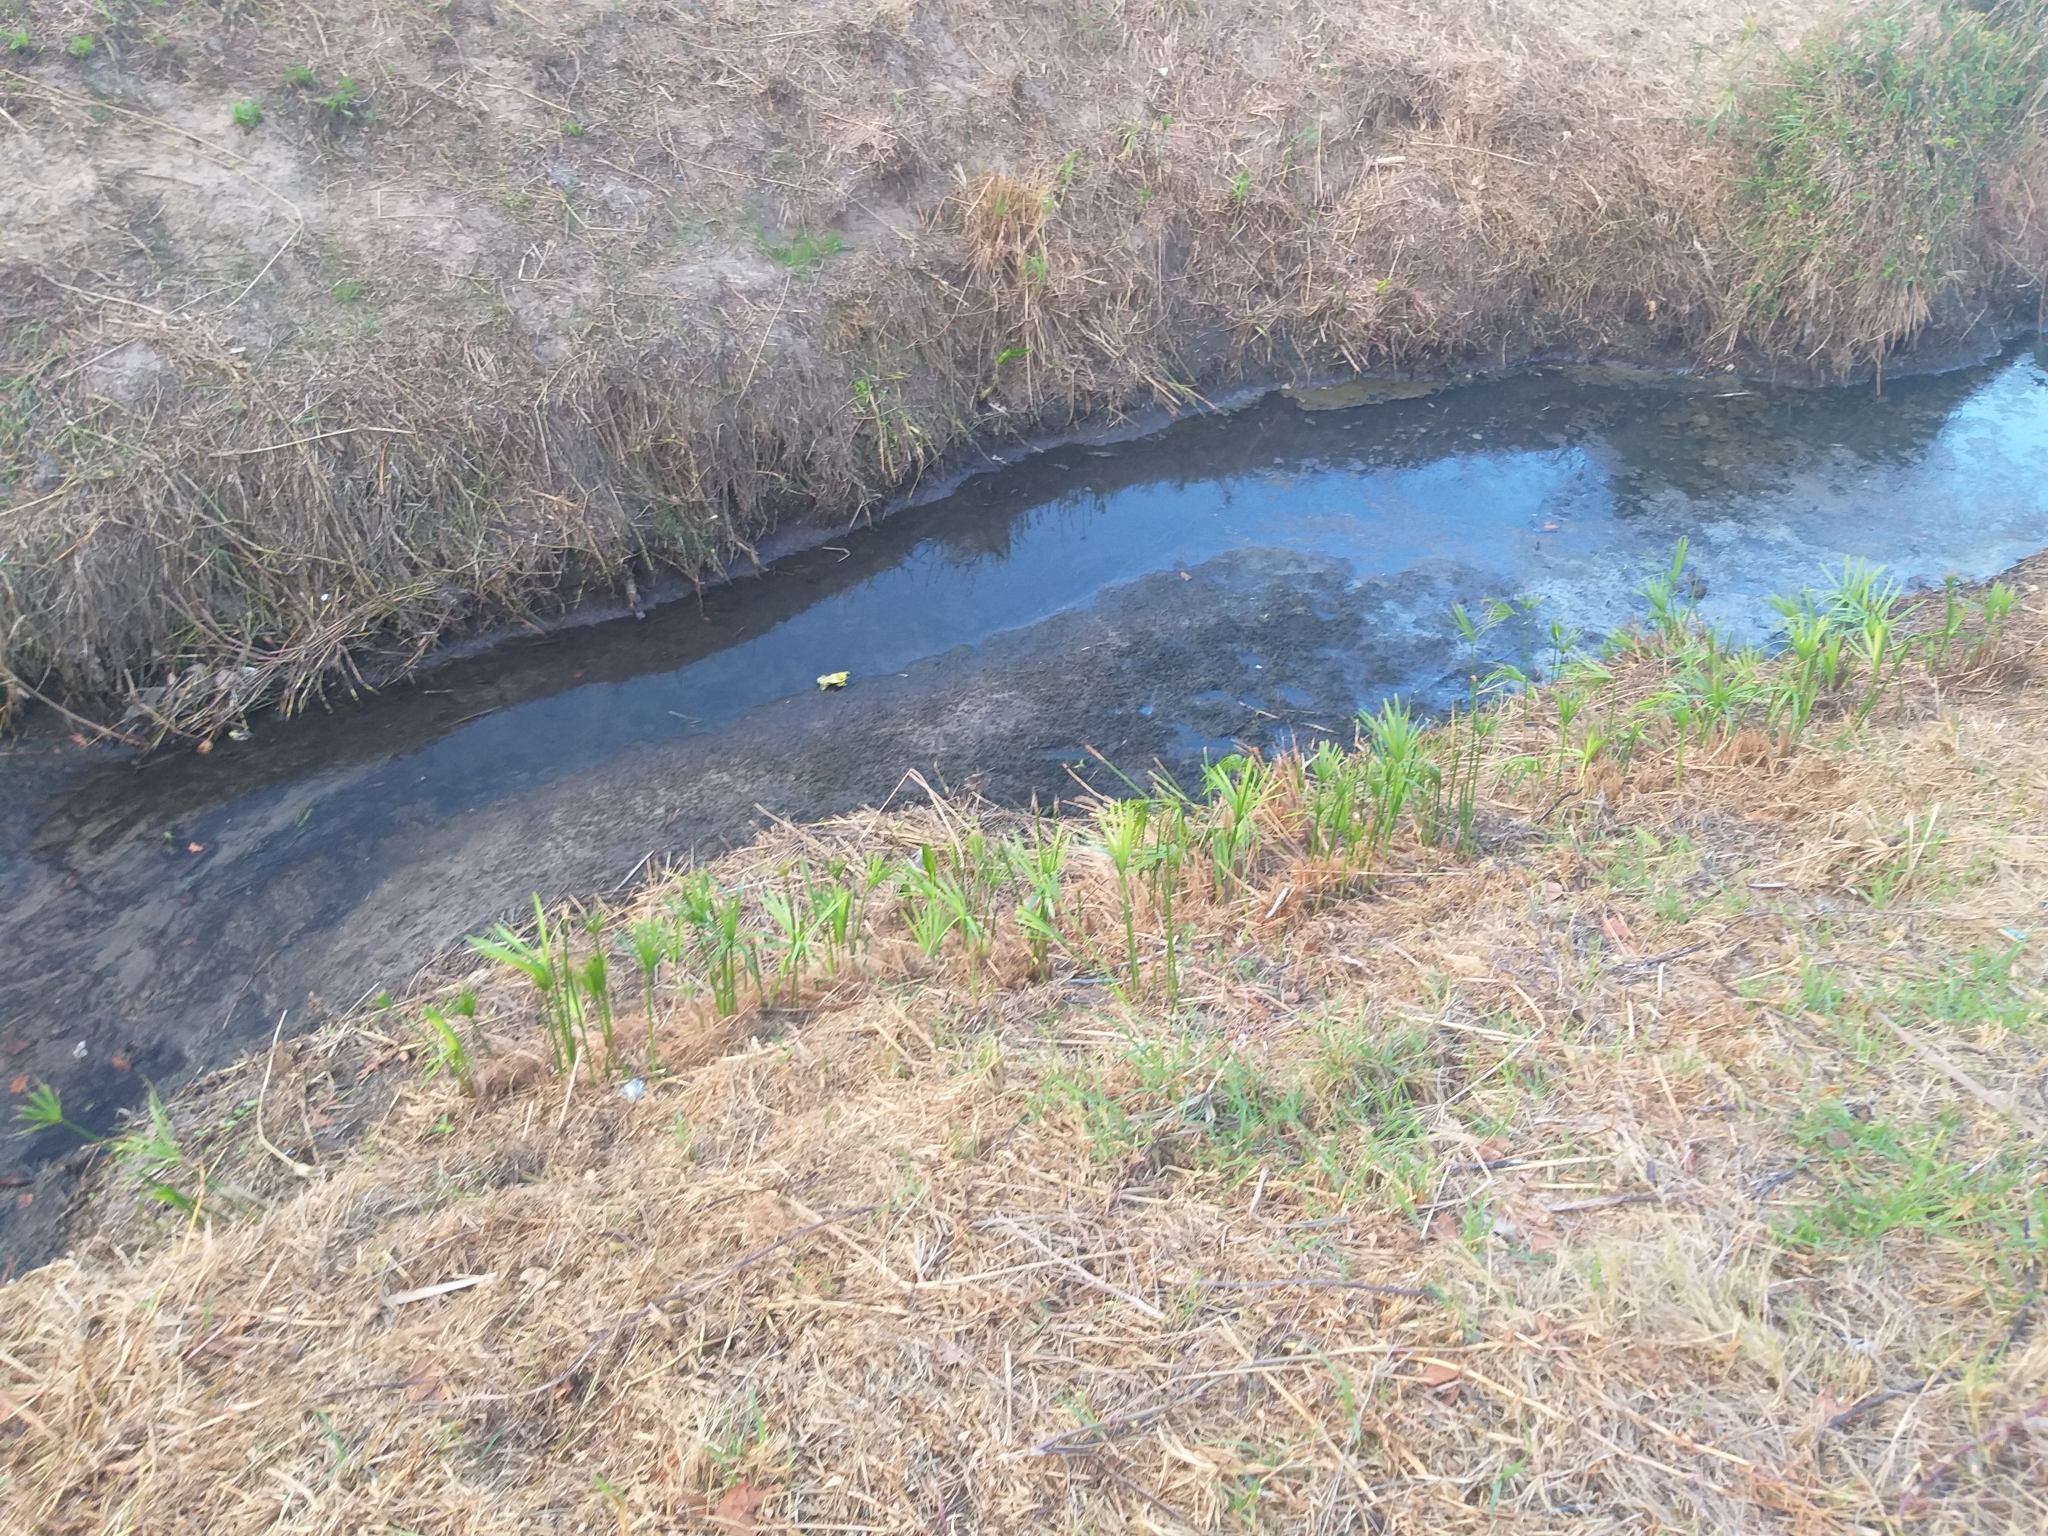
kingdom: Plantae
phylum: Tracheophyta
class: Liliopsida
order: Poales
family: Cyperaceae
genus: Cyperus
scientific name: Cyperus textilis
